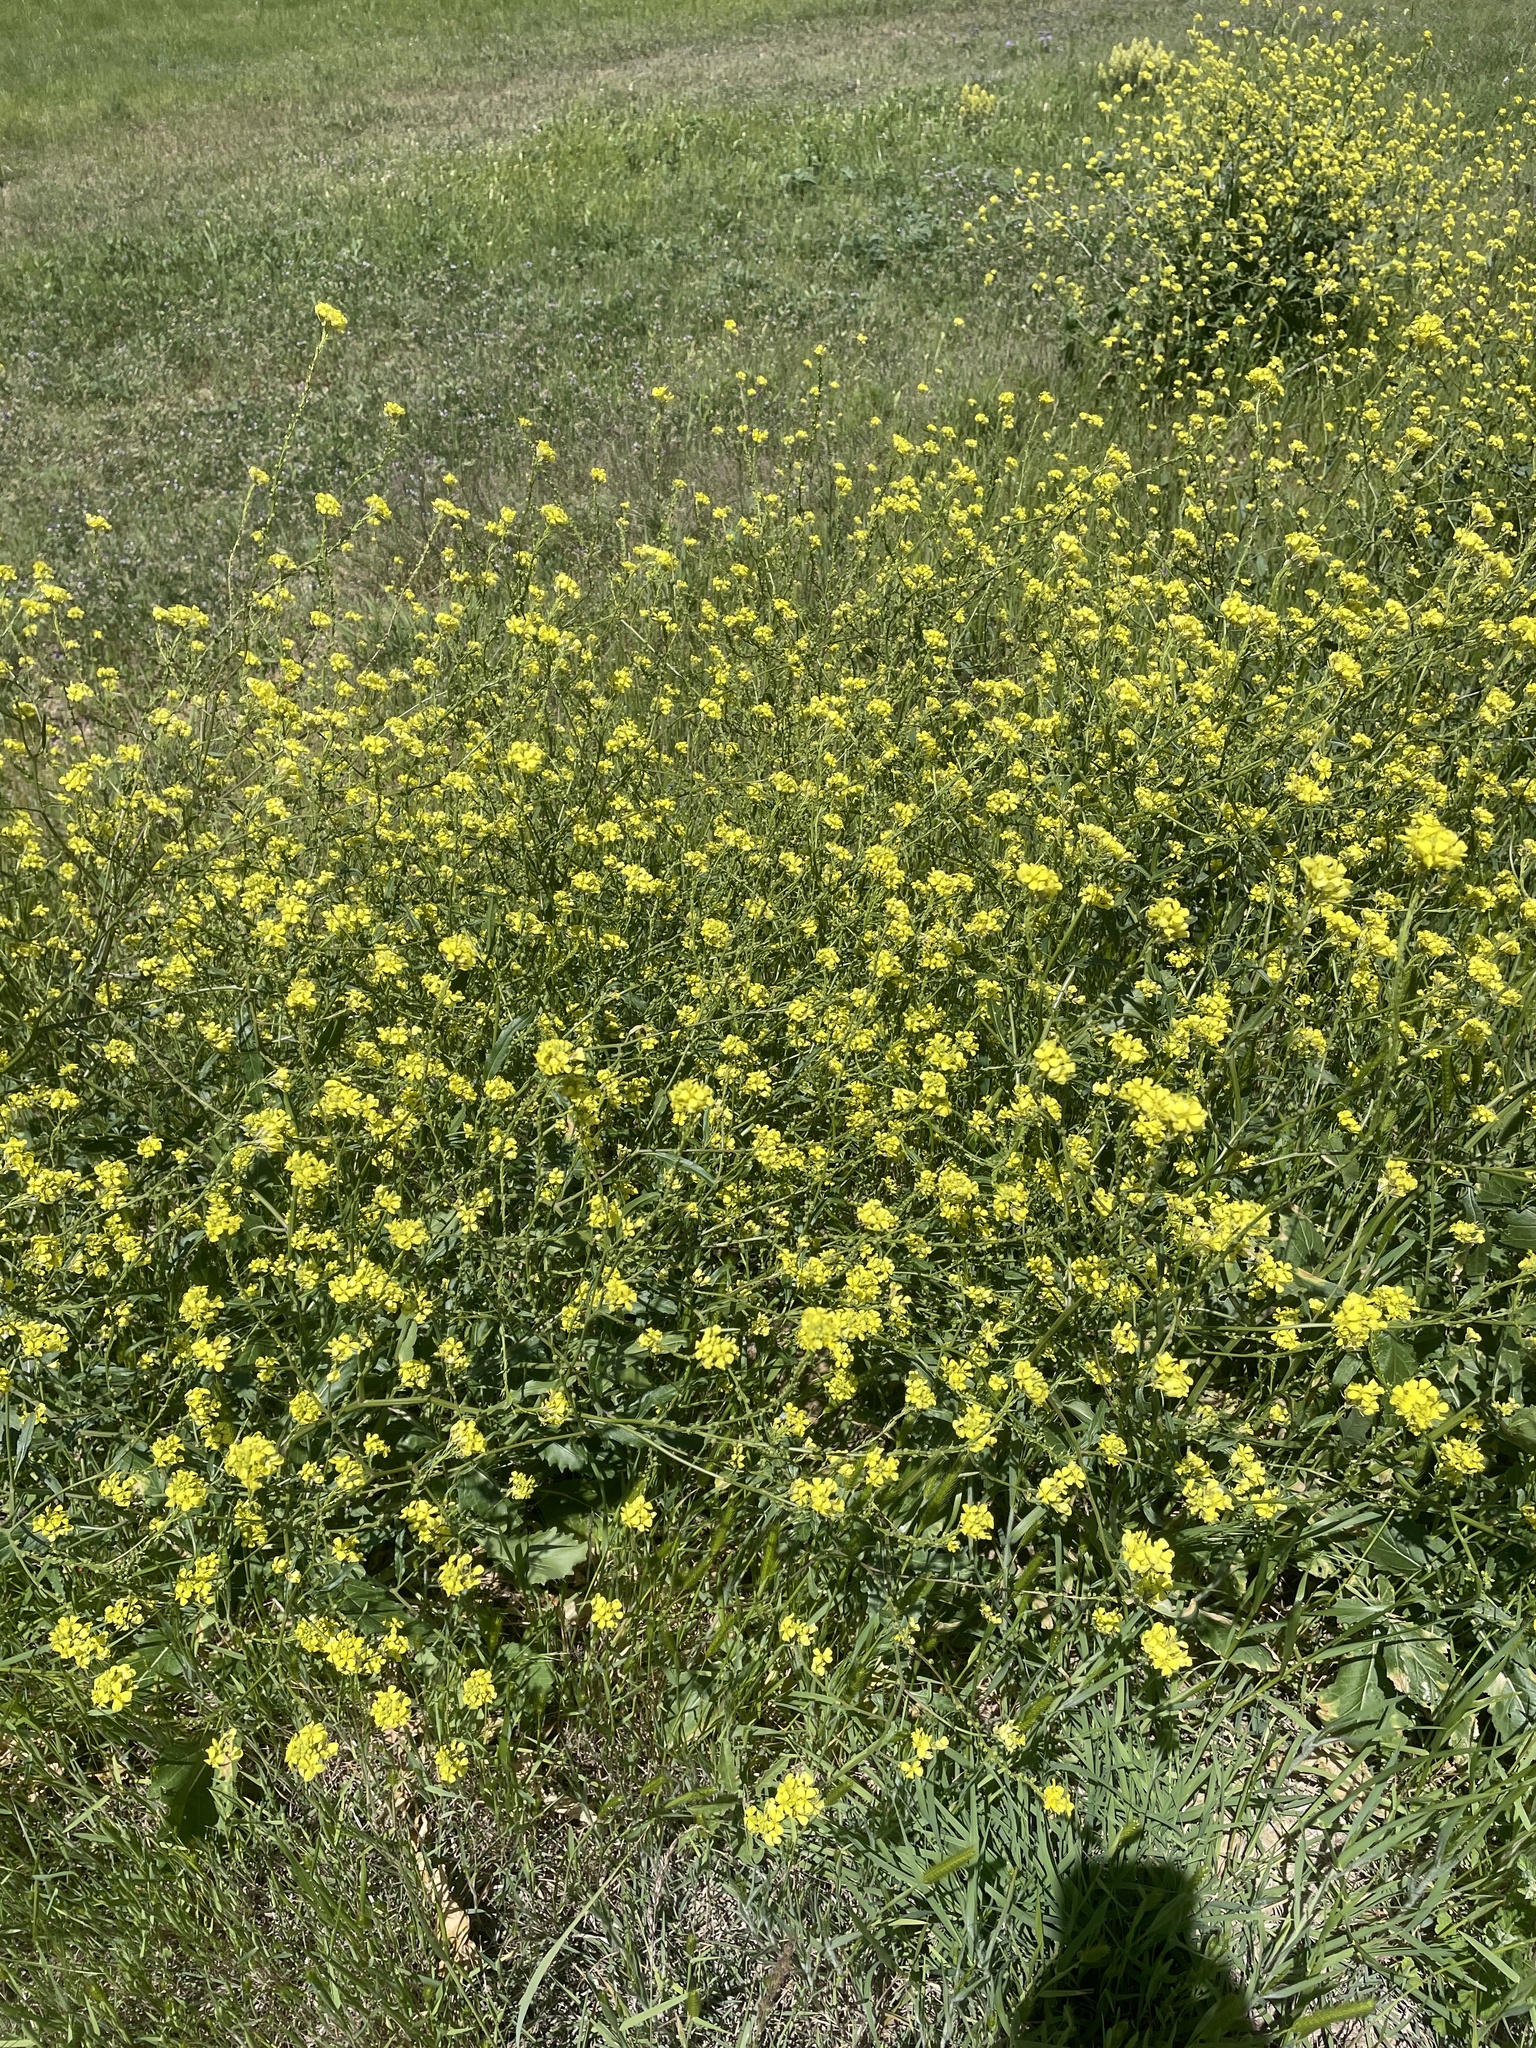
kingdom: Plantae
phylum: Tracheophyta
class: Magnoliopsida
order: Brassicales
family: Brassicaceae
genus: Rapistrum
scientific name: Rapistrum rugosum
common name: Annual bastardcabbage
